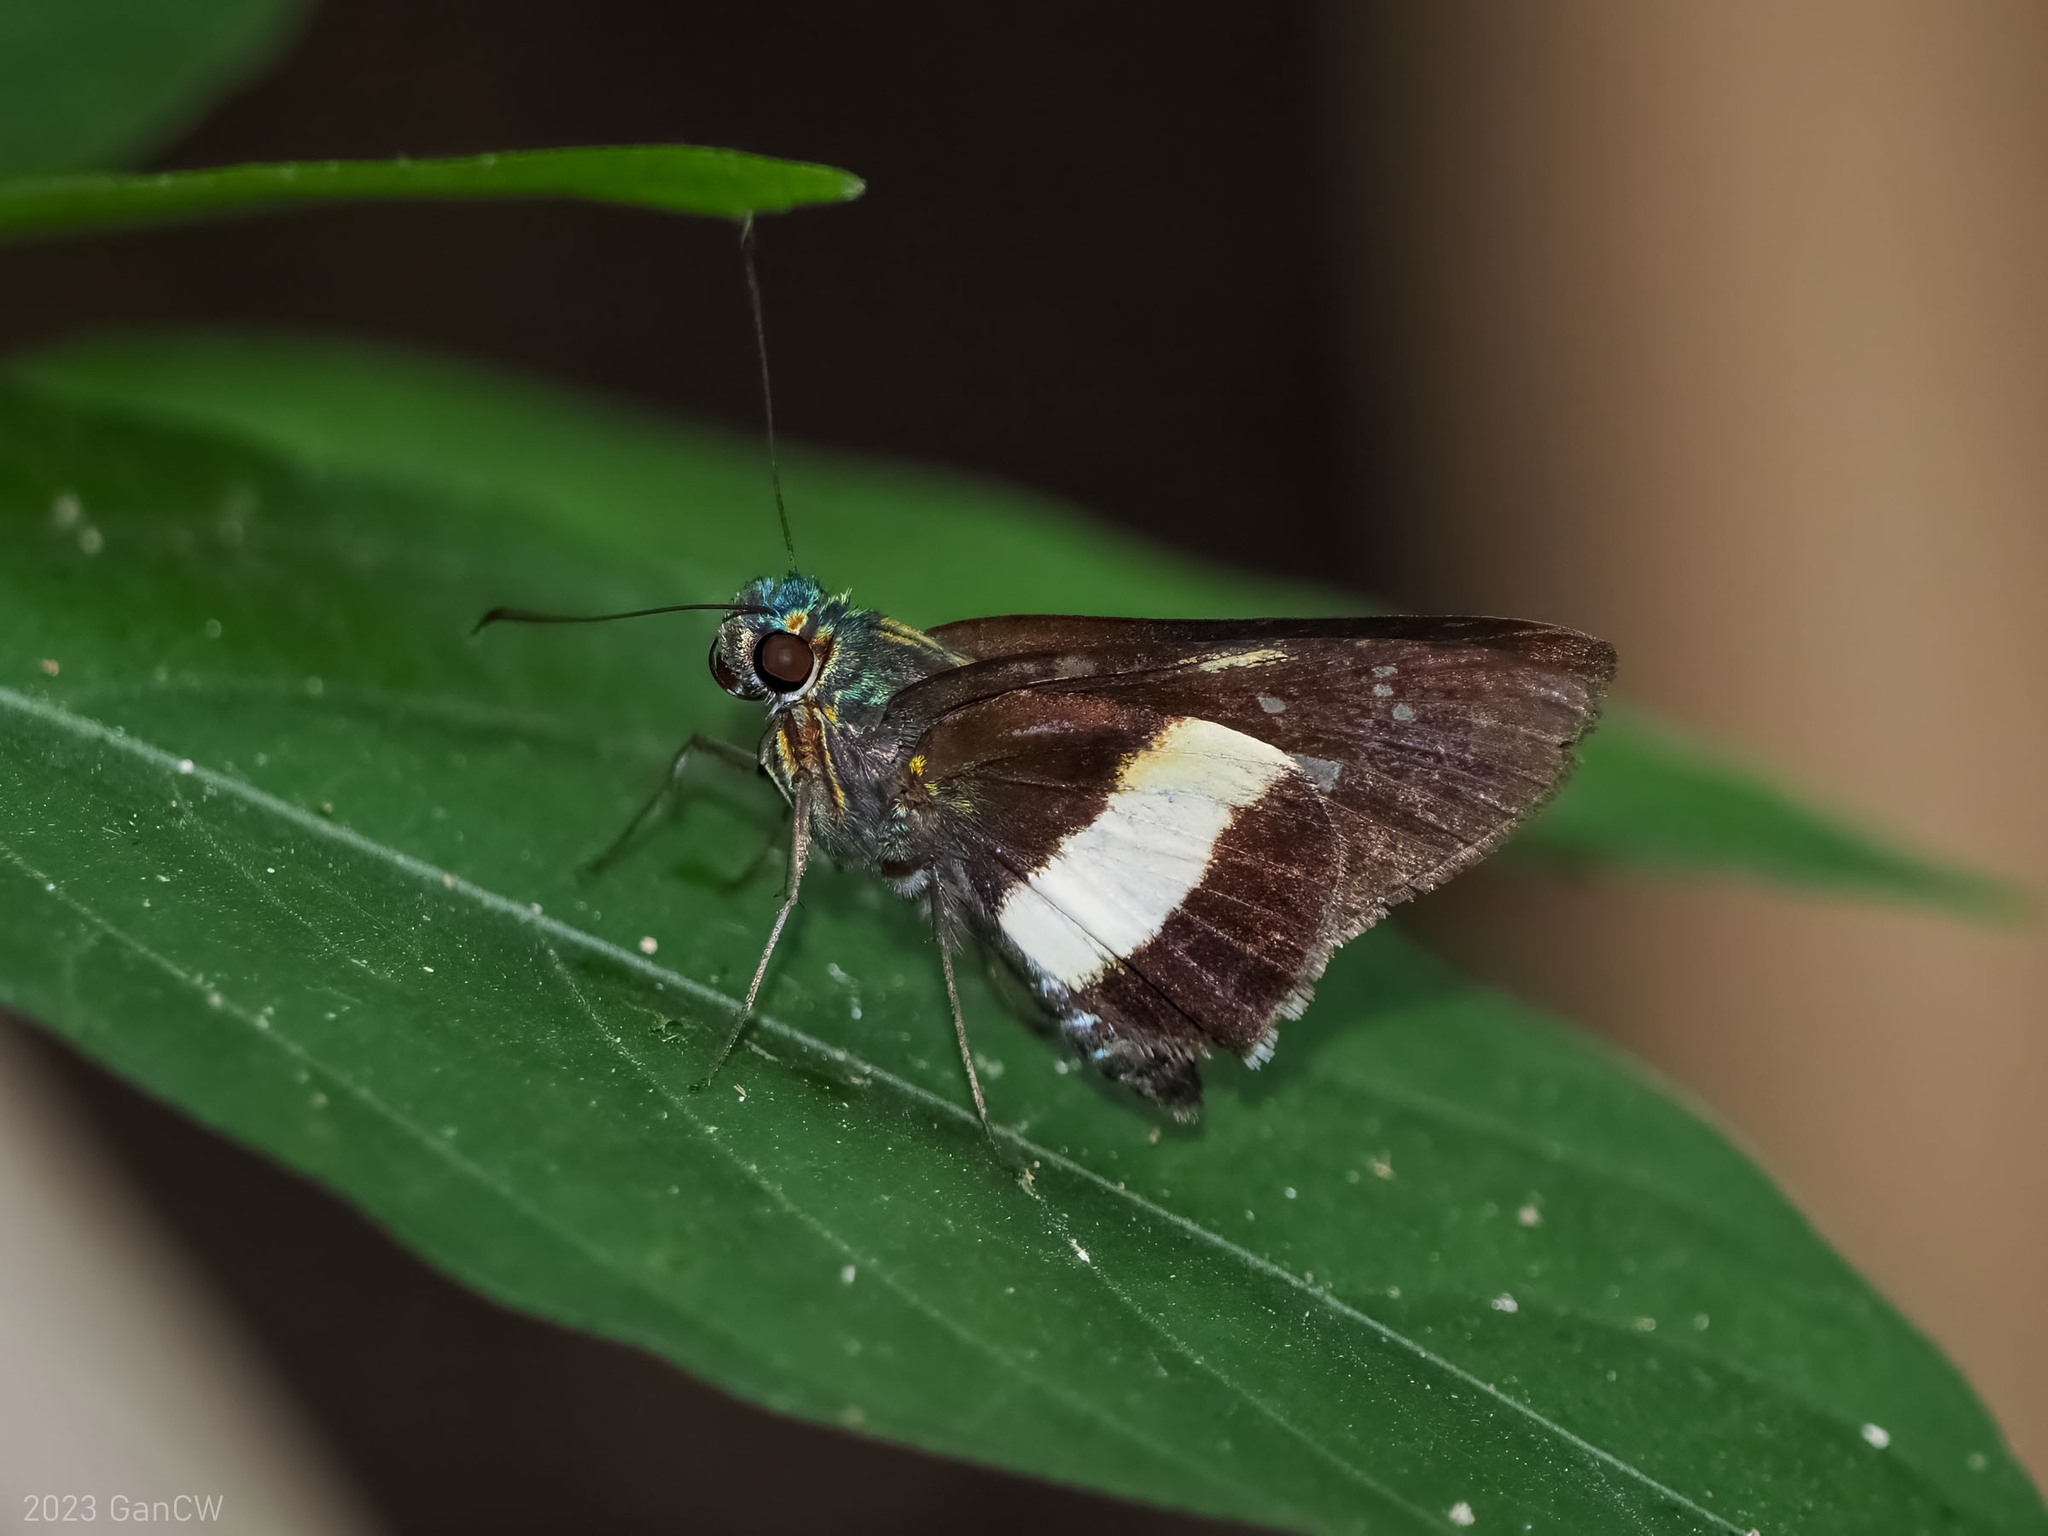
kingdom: Animalia
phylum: Arthropoda
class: Insecta
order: Lepidoptera
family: Hesperiidae
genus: Acerbas
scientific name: Acerbas duris
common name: Banded palmer
